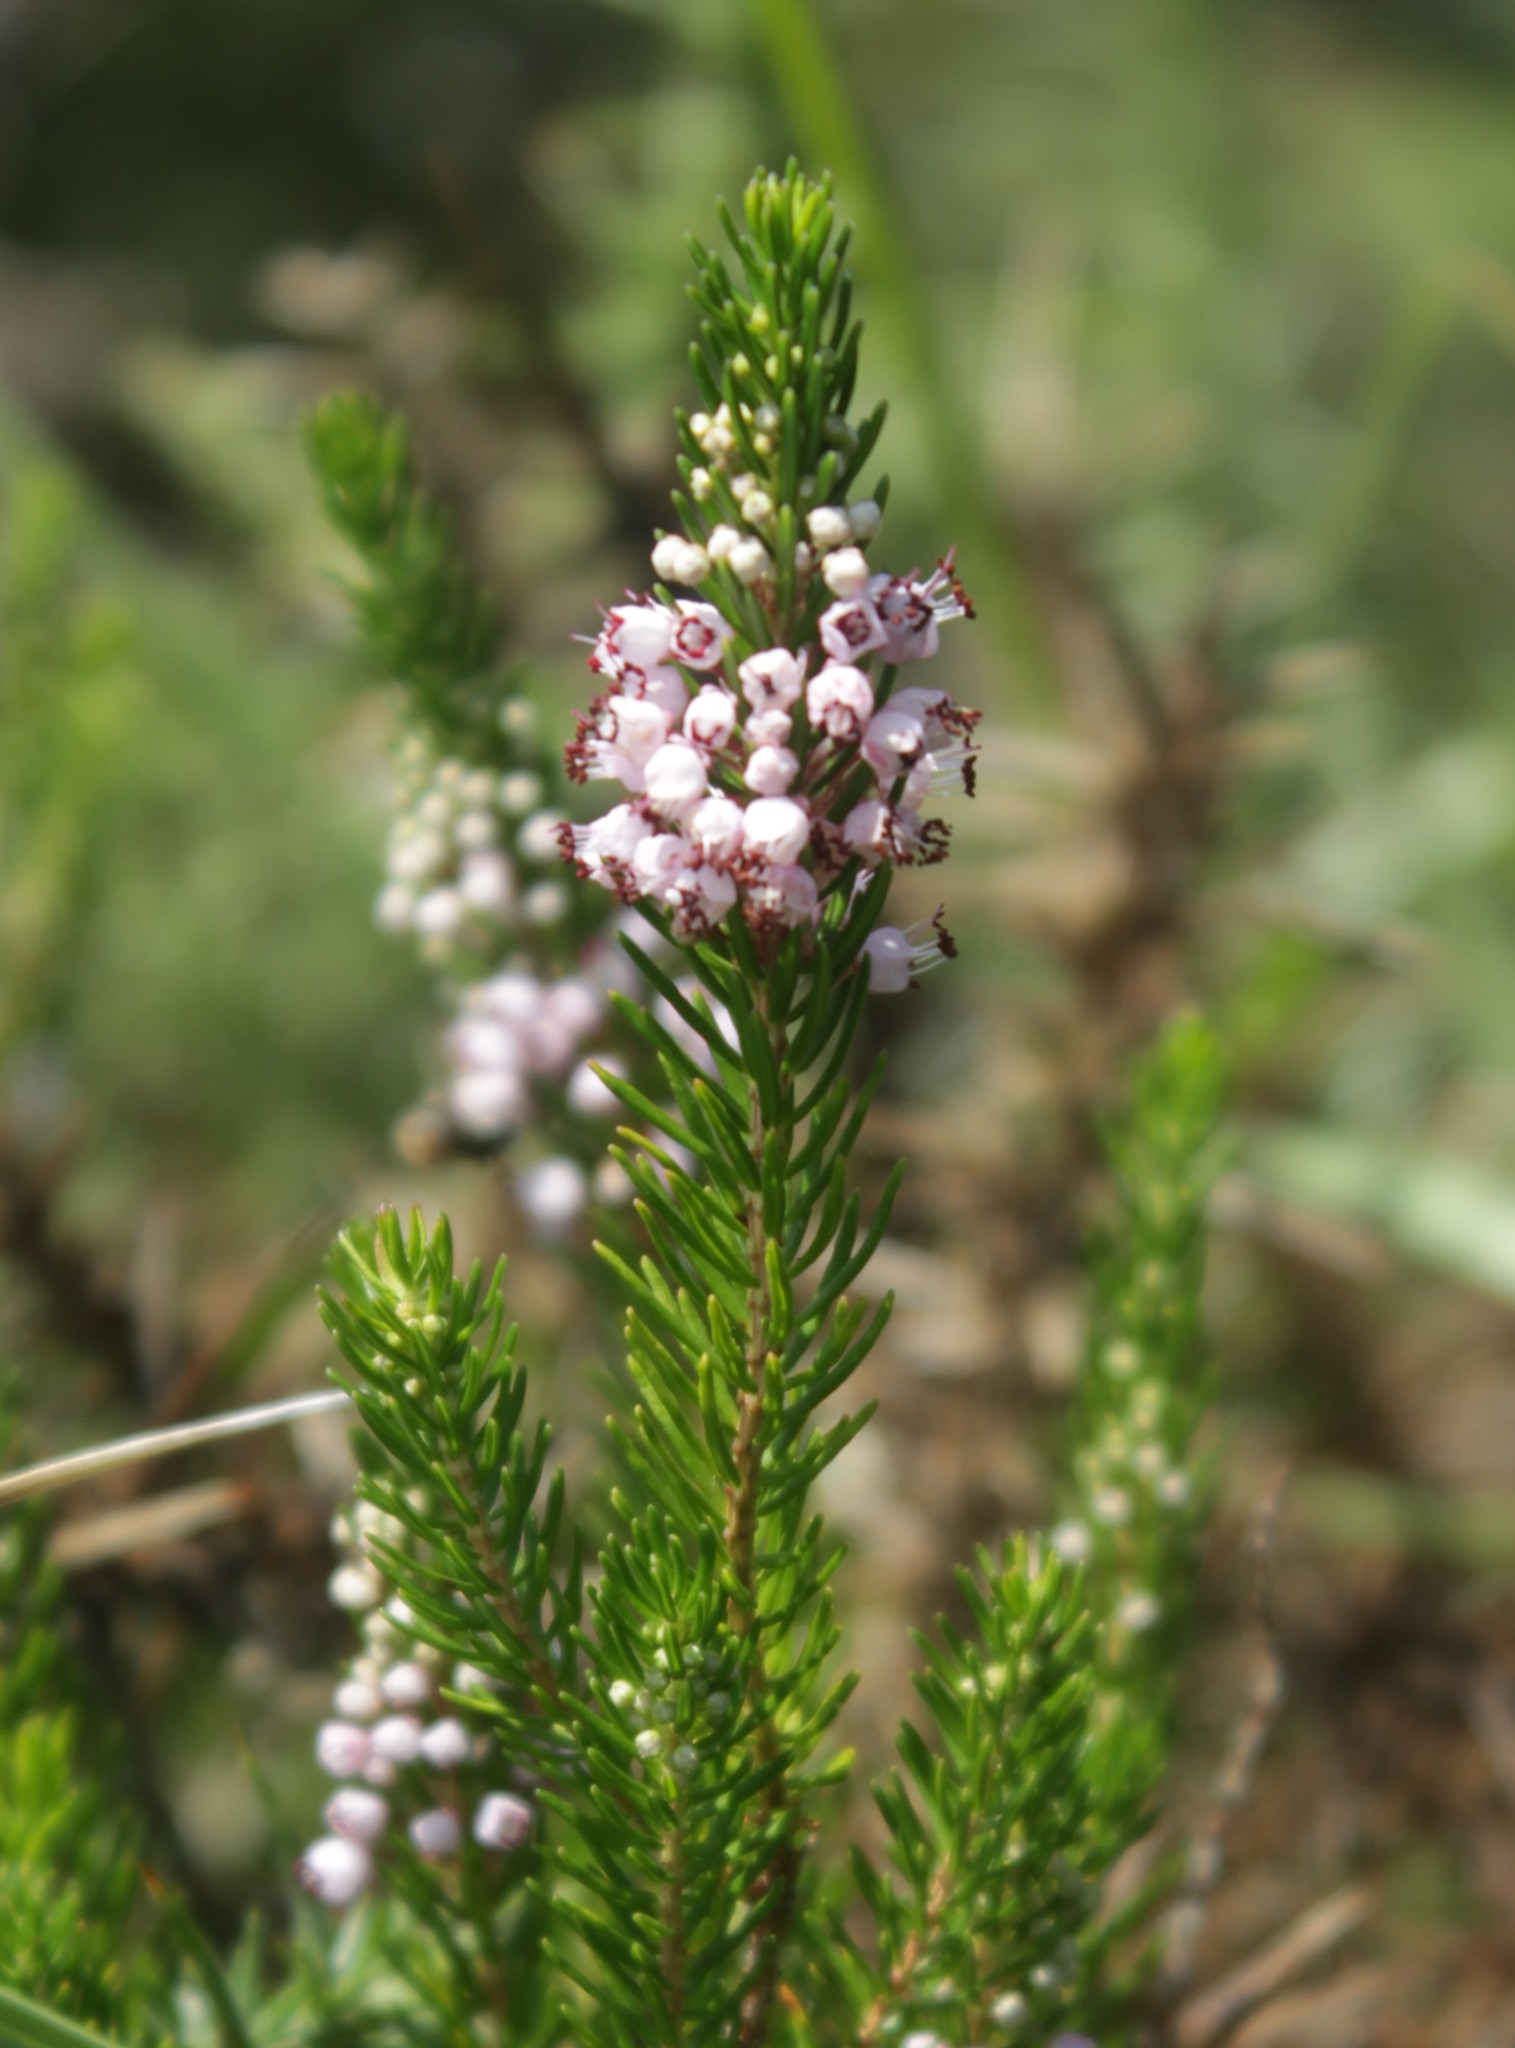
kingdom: Plantae
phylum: Tracheophyta
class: Magnoliopsida
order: Ericales
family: Ericaceae
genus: Erica
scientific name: Erica vagans
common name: Cornish heath
